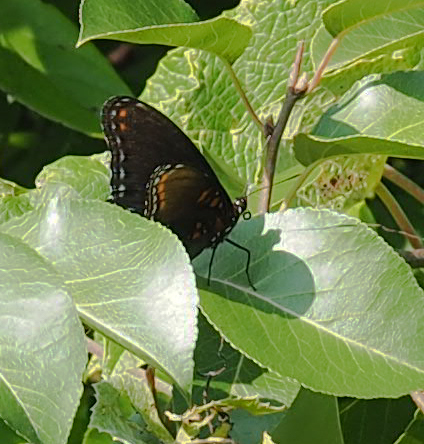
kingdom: Animalia
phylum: Arthropoda
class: Insecta
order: Lepidoptera
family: Nymphalidae
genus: Limenitis
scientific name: Limenitis astyanax
